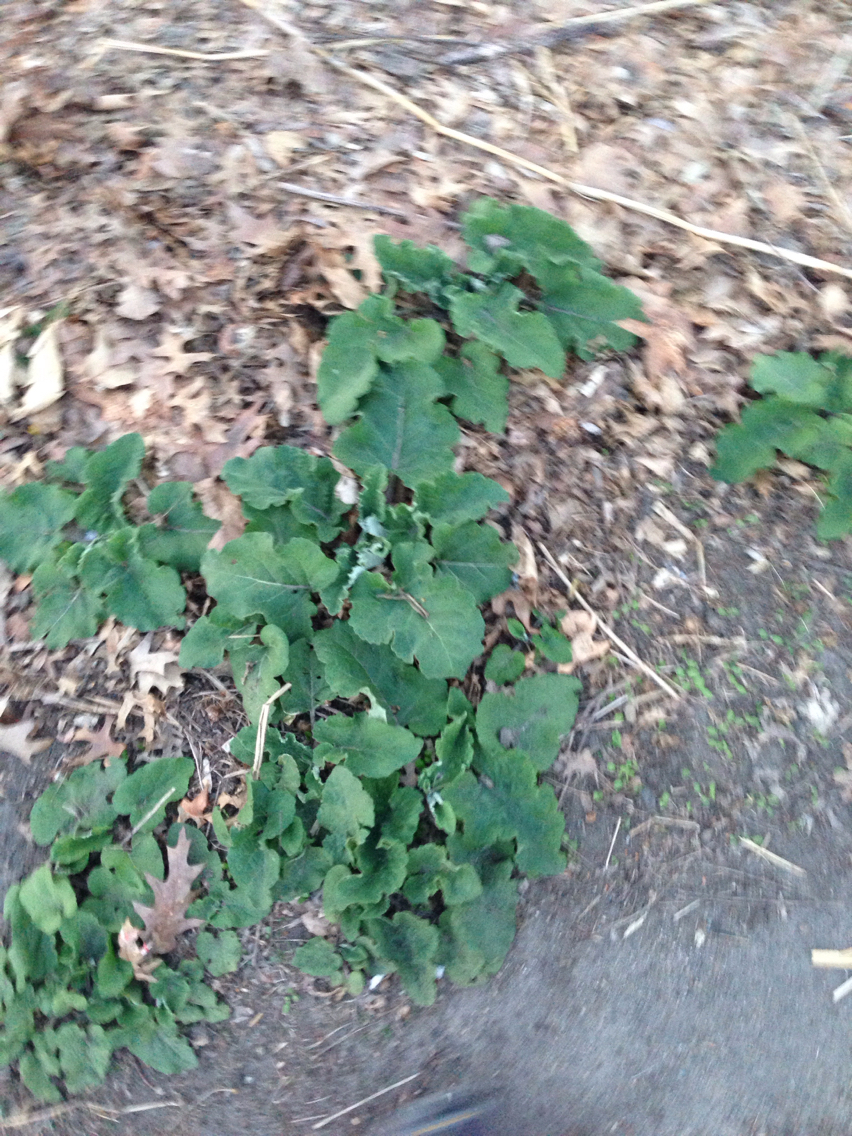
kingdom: Plantae
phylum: Tracheophyta
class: Magnoliopsida
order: Asterales
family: Asteraceae
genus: Arctium
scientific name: Arctium
